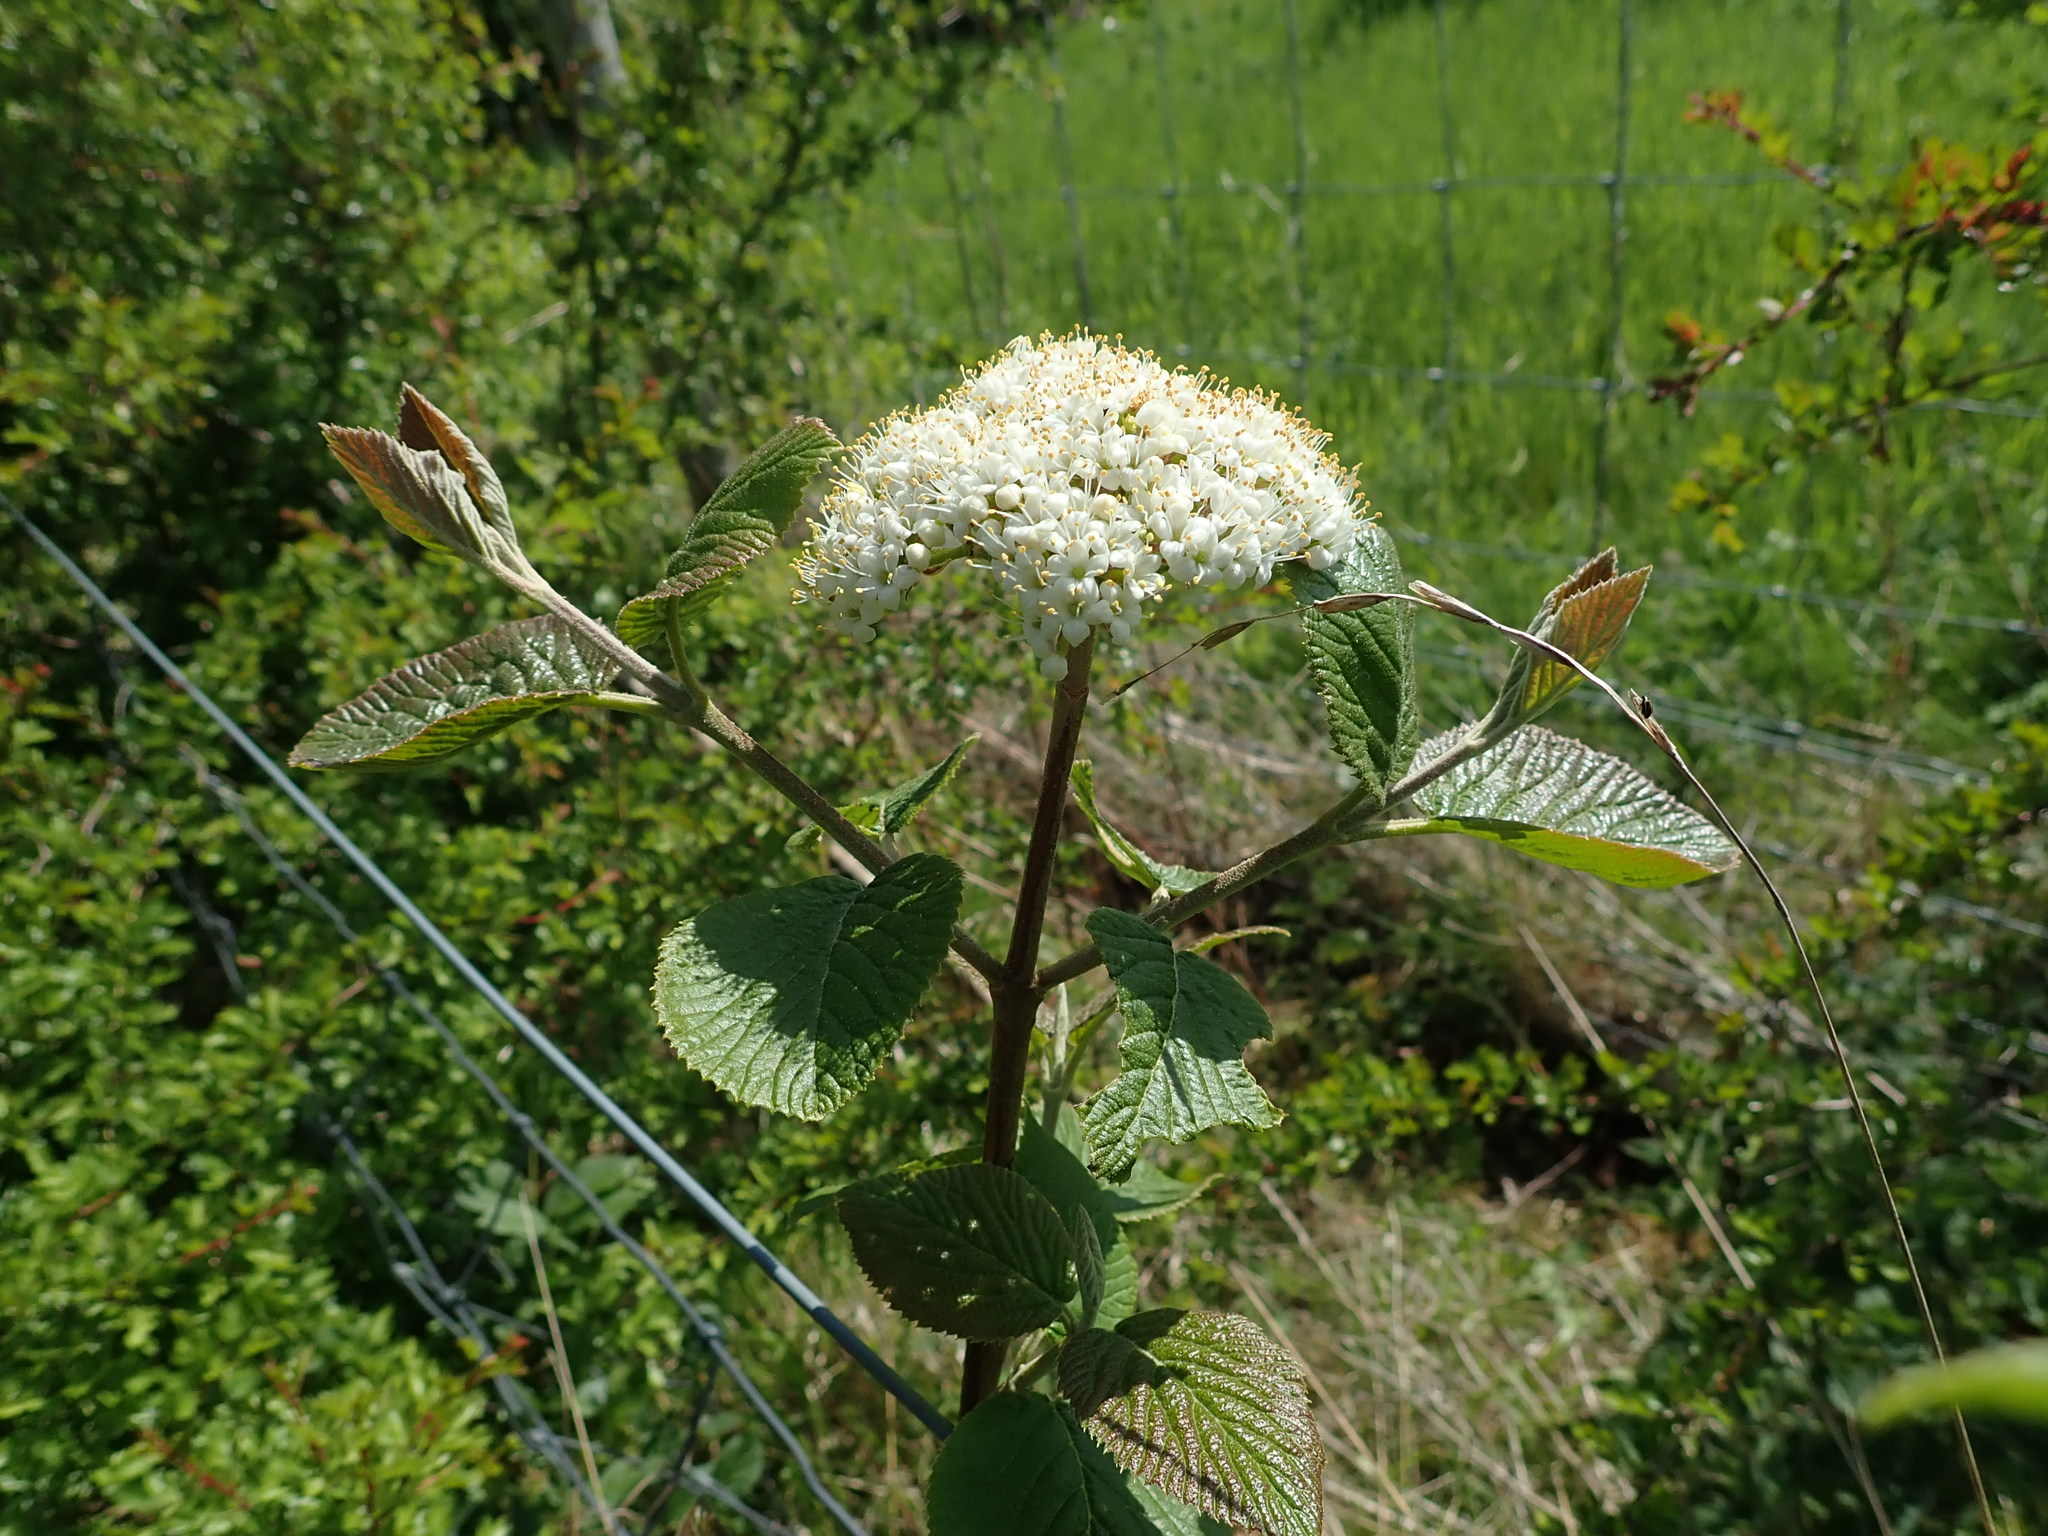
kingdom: Plantae
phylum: Tracheophyta
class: Magnoliopsida
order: Dipsacales
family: Viburnaceae
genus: Viburnum
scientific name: Viburnum lantana
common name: Wayfaring tree
